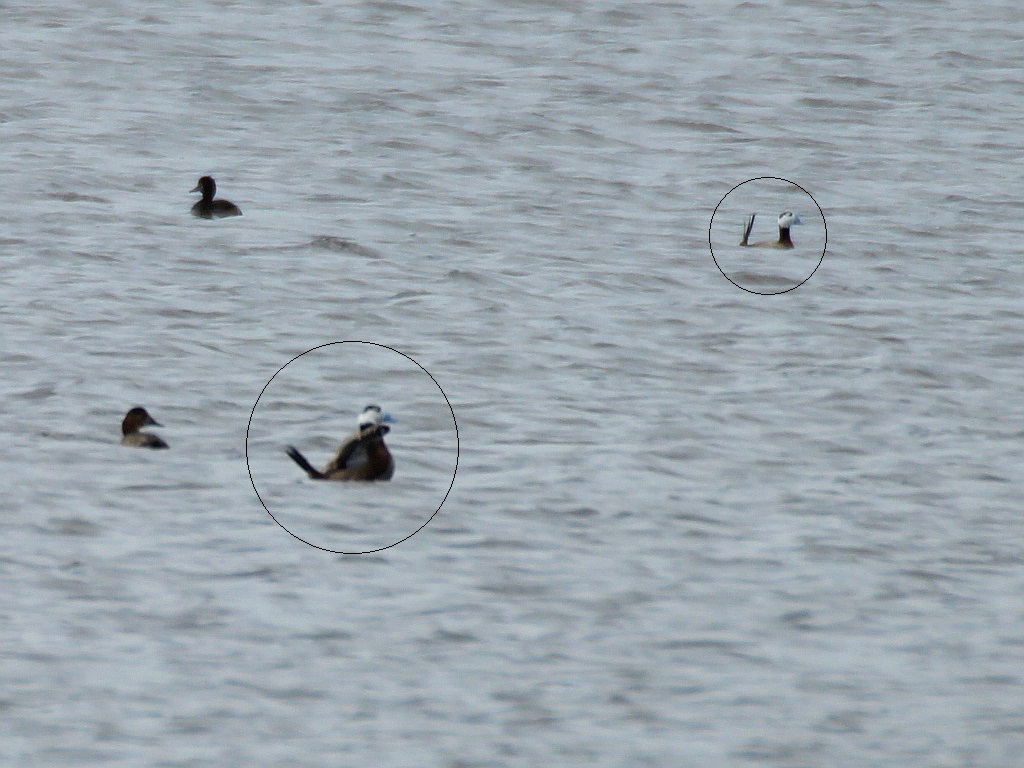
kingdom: Animalia
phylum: Chordata
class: Aves
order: Anseriformes
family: Anatidae
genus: Oxyura
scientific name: Oxyura leucocephala
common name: White-headed duck
